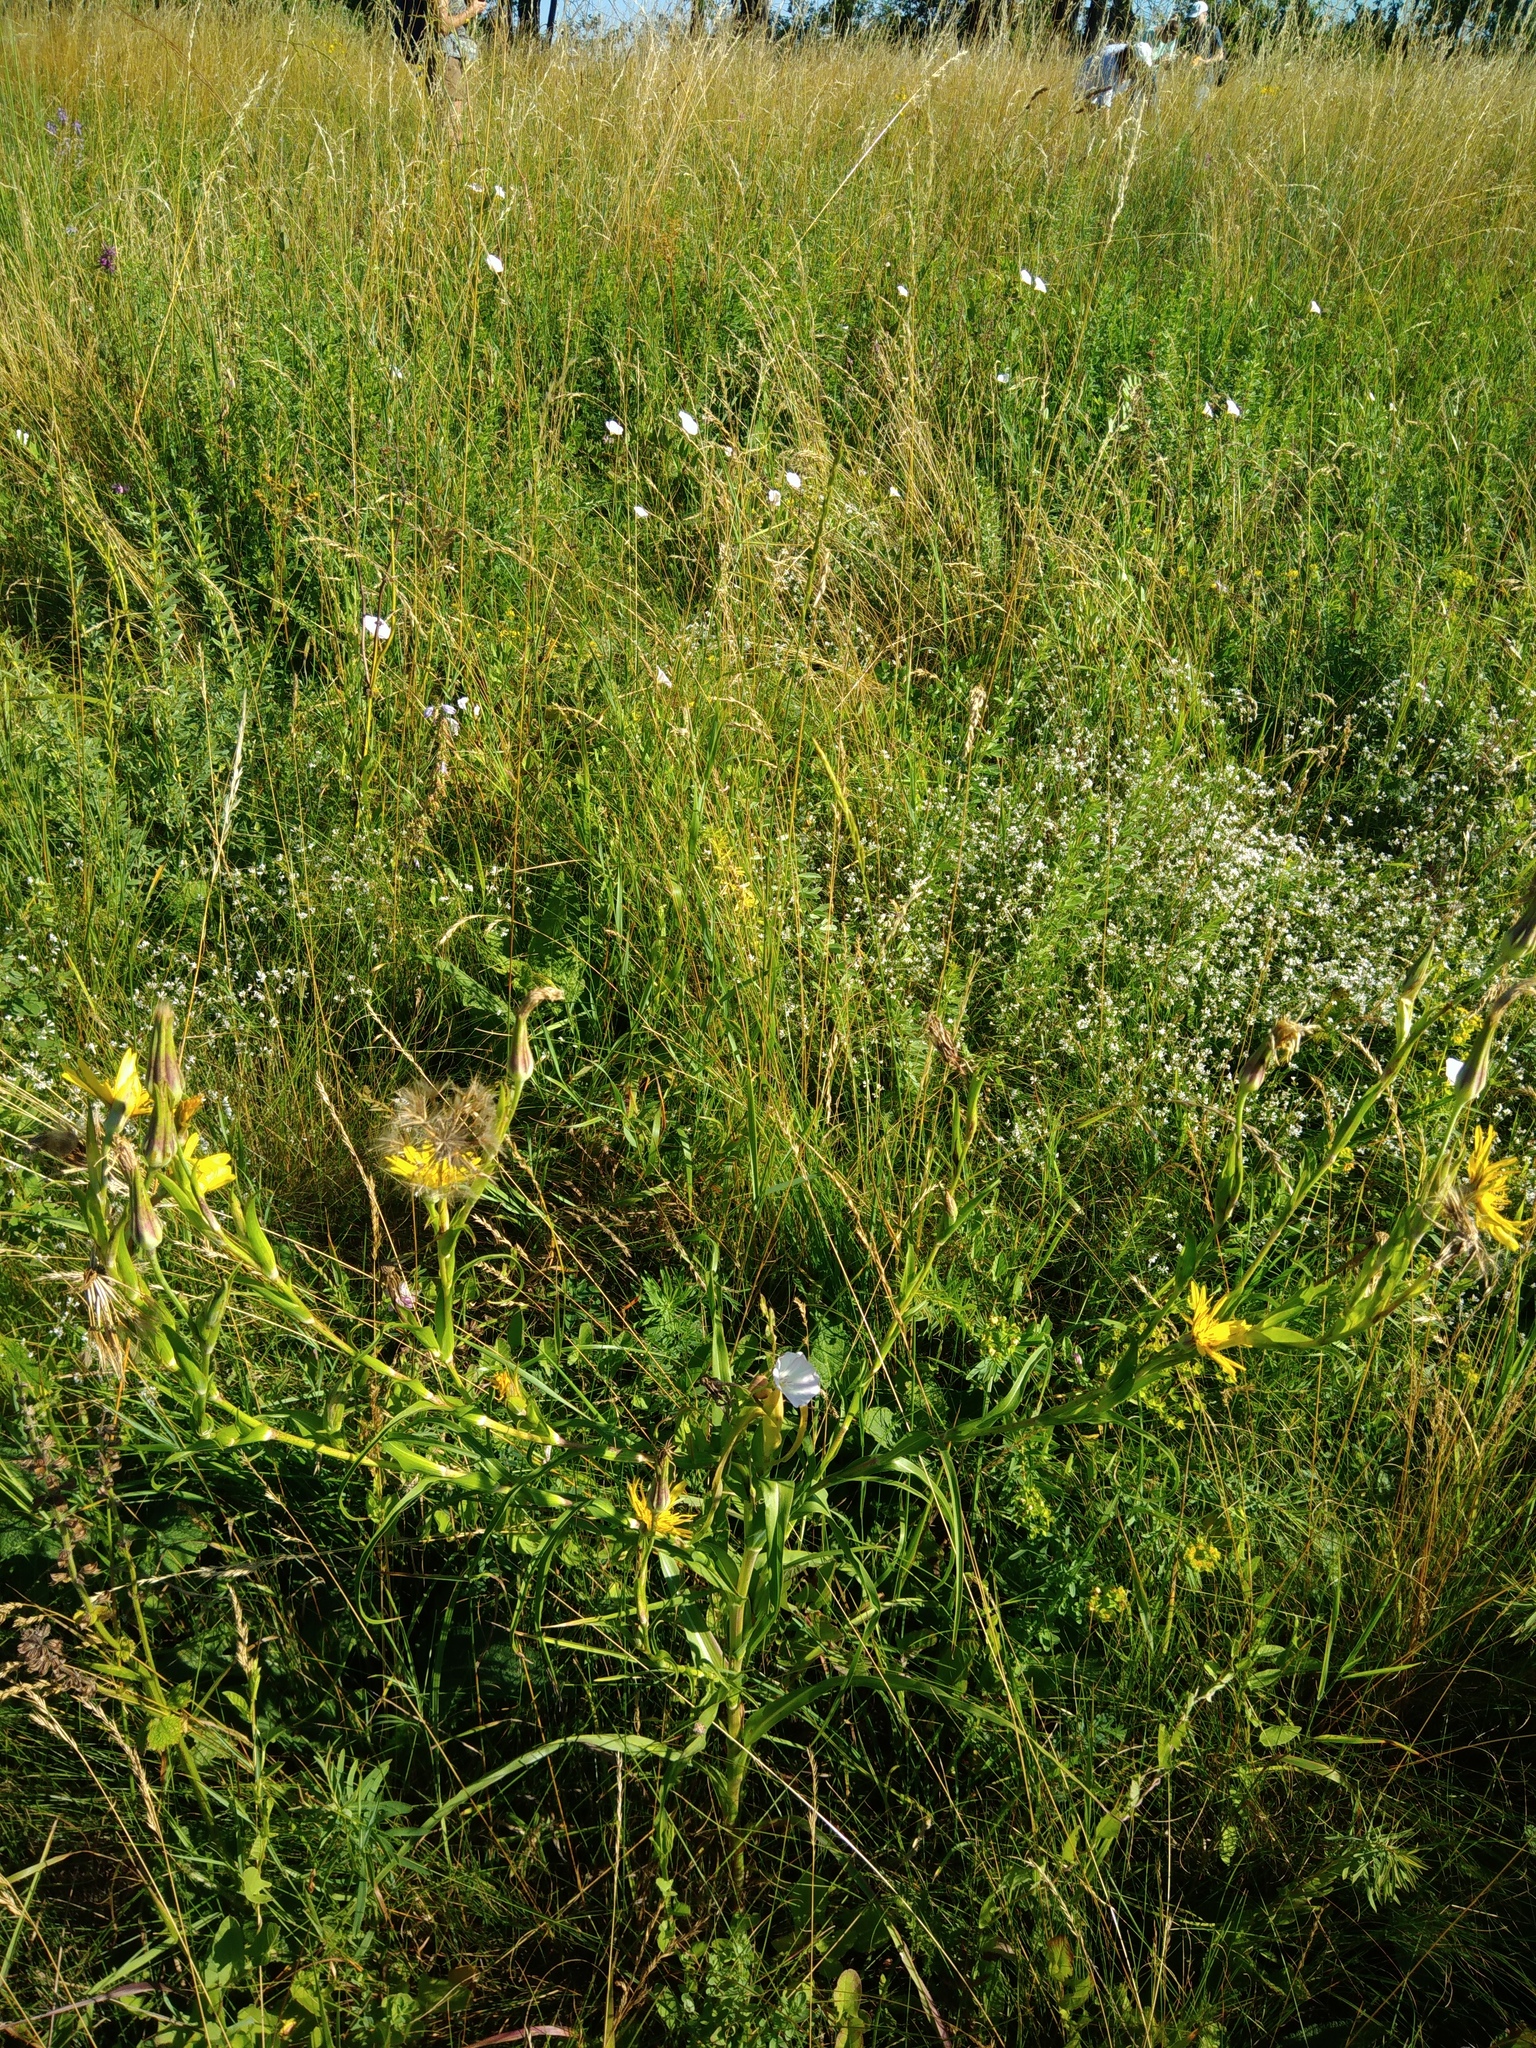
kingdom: Plantae
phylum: Tracheophyta
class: Magnoliopsida
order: Asterales
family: Asteraceae
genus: Tragopogon
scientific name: Tragopogon orientalis
